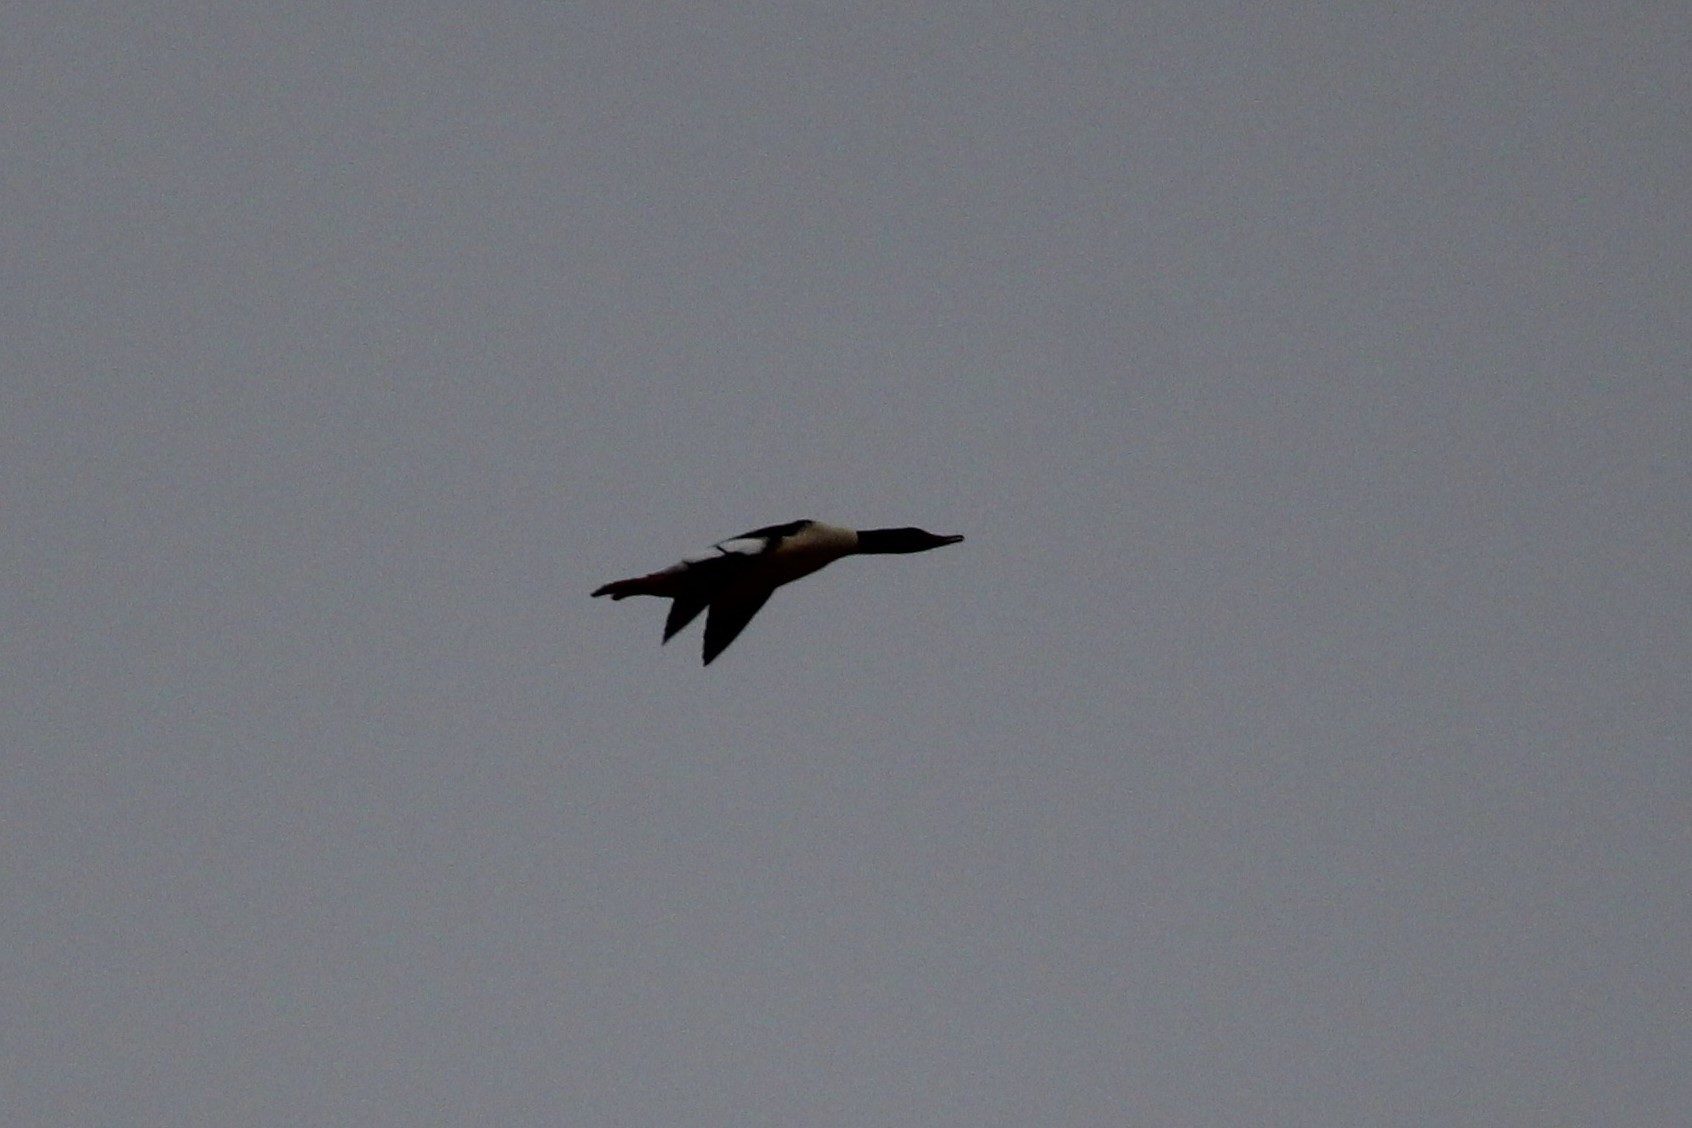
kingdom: Animalia
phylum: Chordata
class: Aves
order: Anseriformes
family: Anatidae
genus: Mergus
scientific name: Mergus merganser
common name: Common merganser
